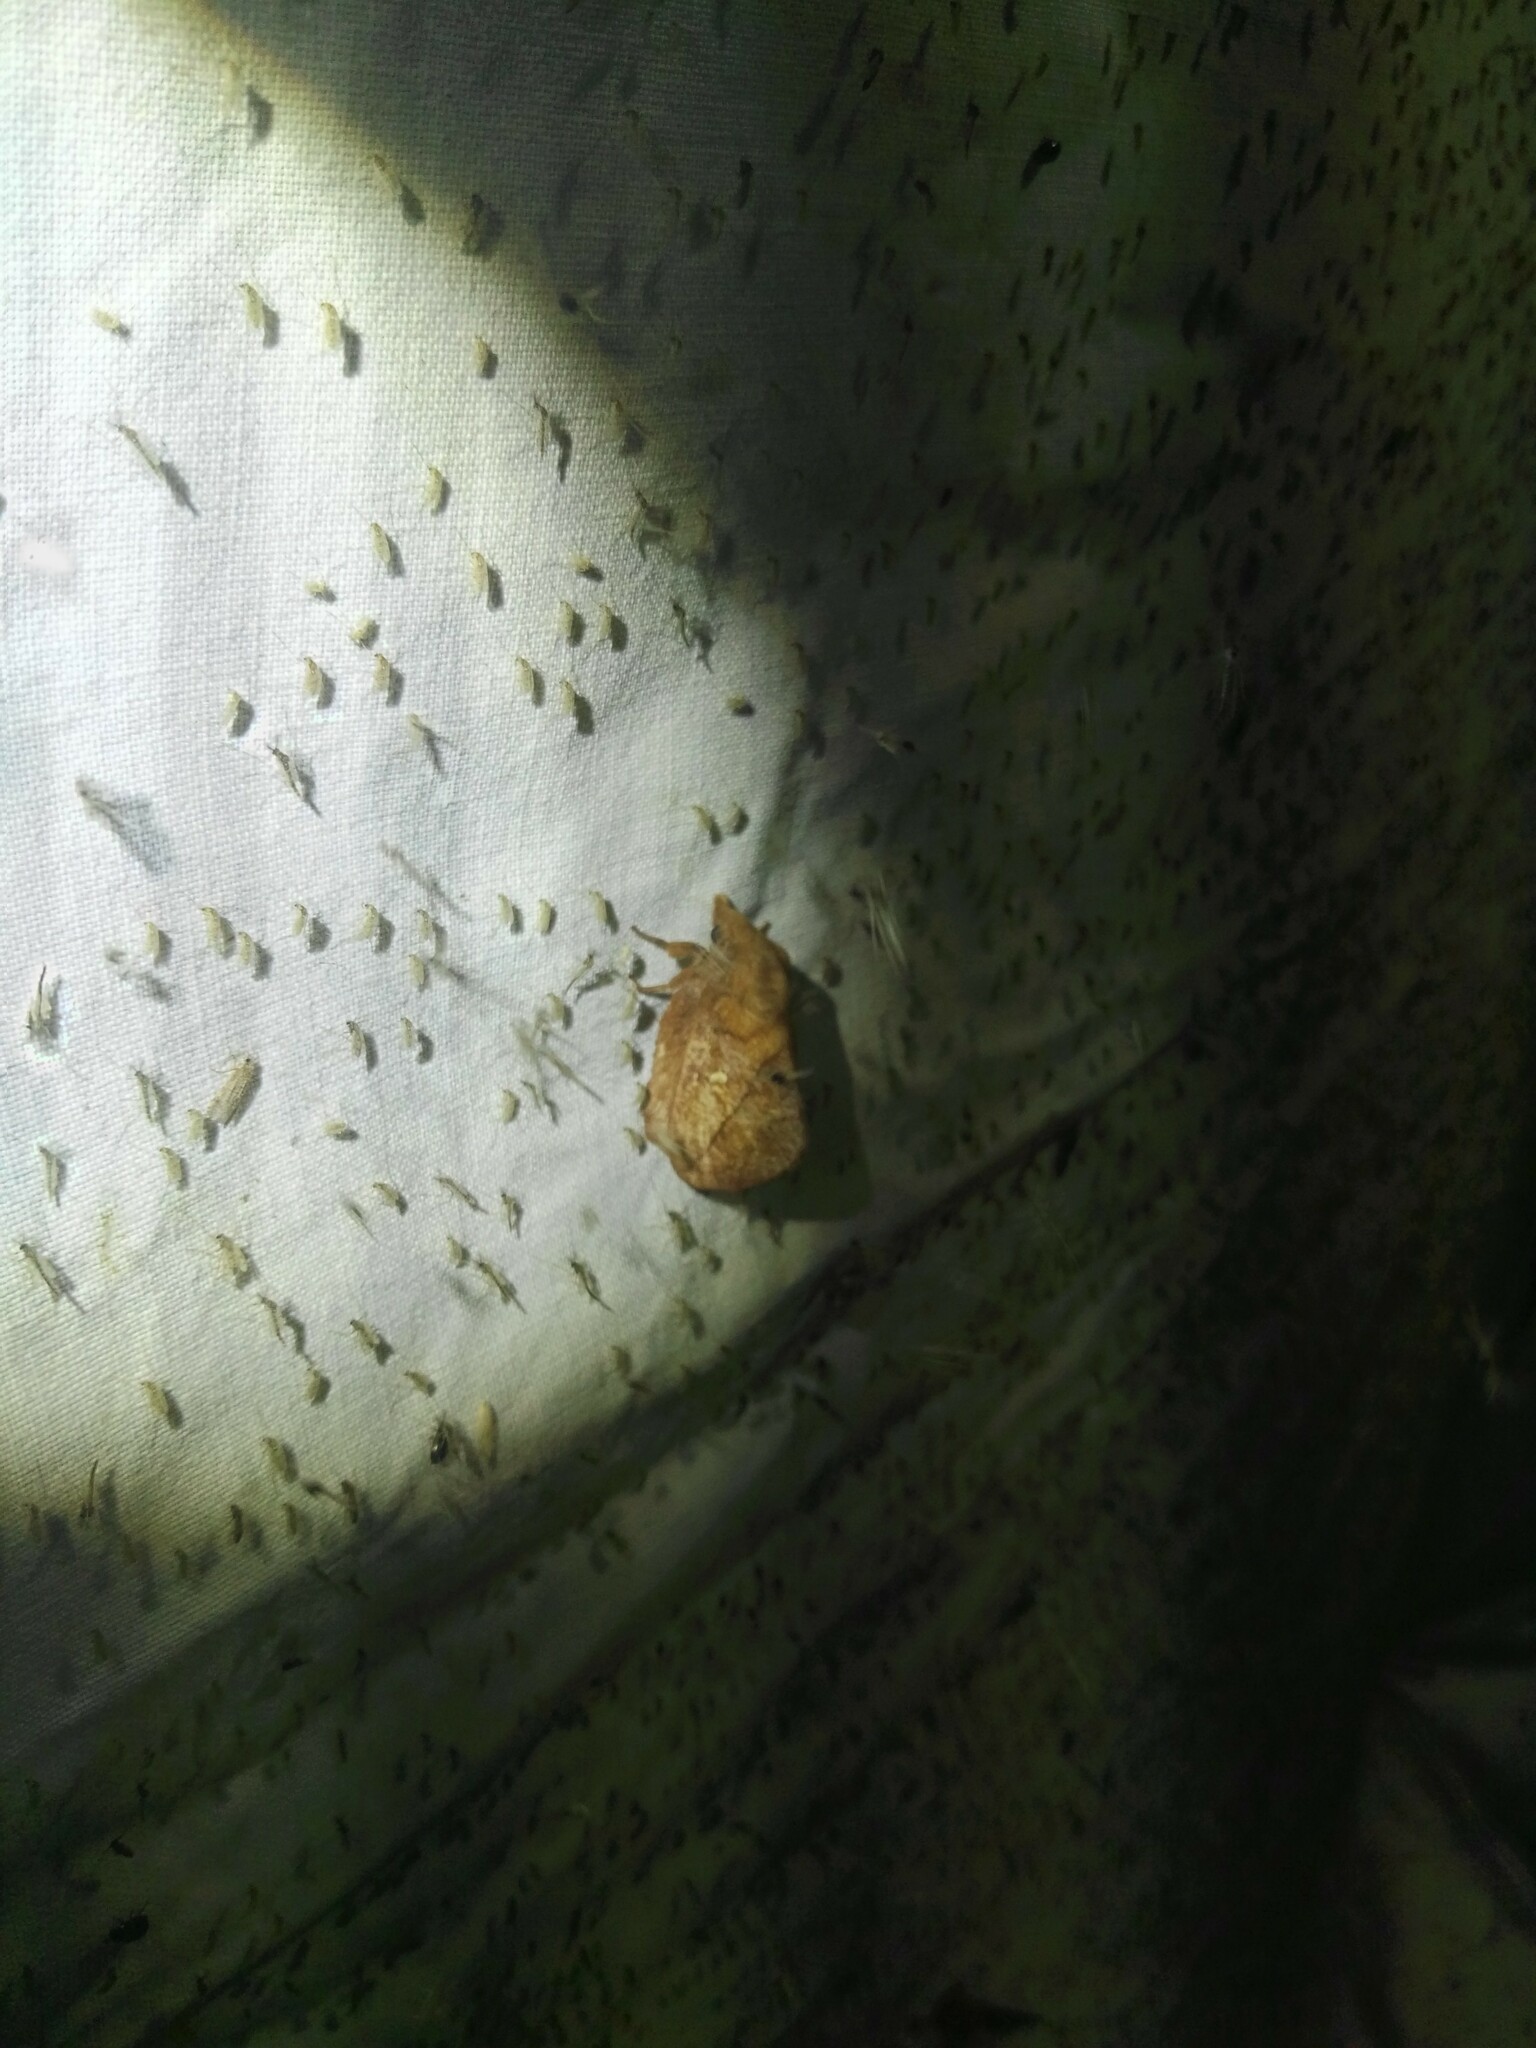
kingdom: Animalia
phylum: Arthropoda
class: Insecta
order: Lepidoptera
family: Lasiocampidae
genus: Euthrix
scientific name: Euthrix potatoria
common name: Drinker
